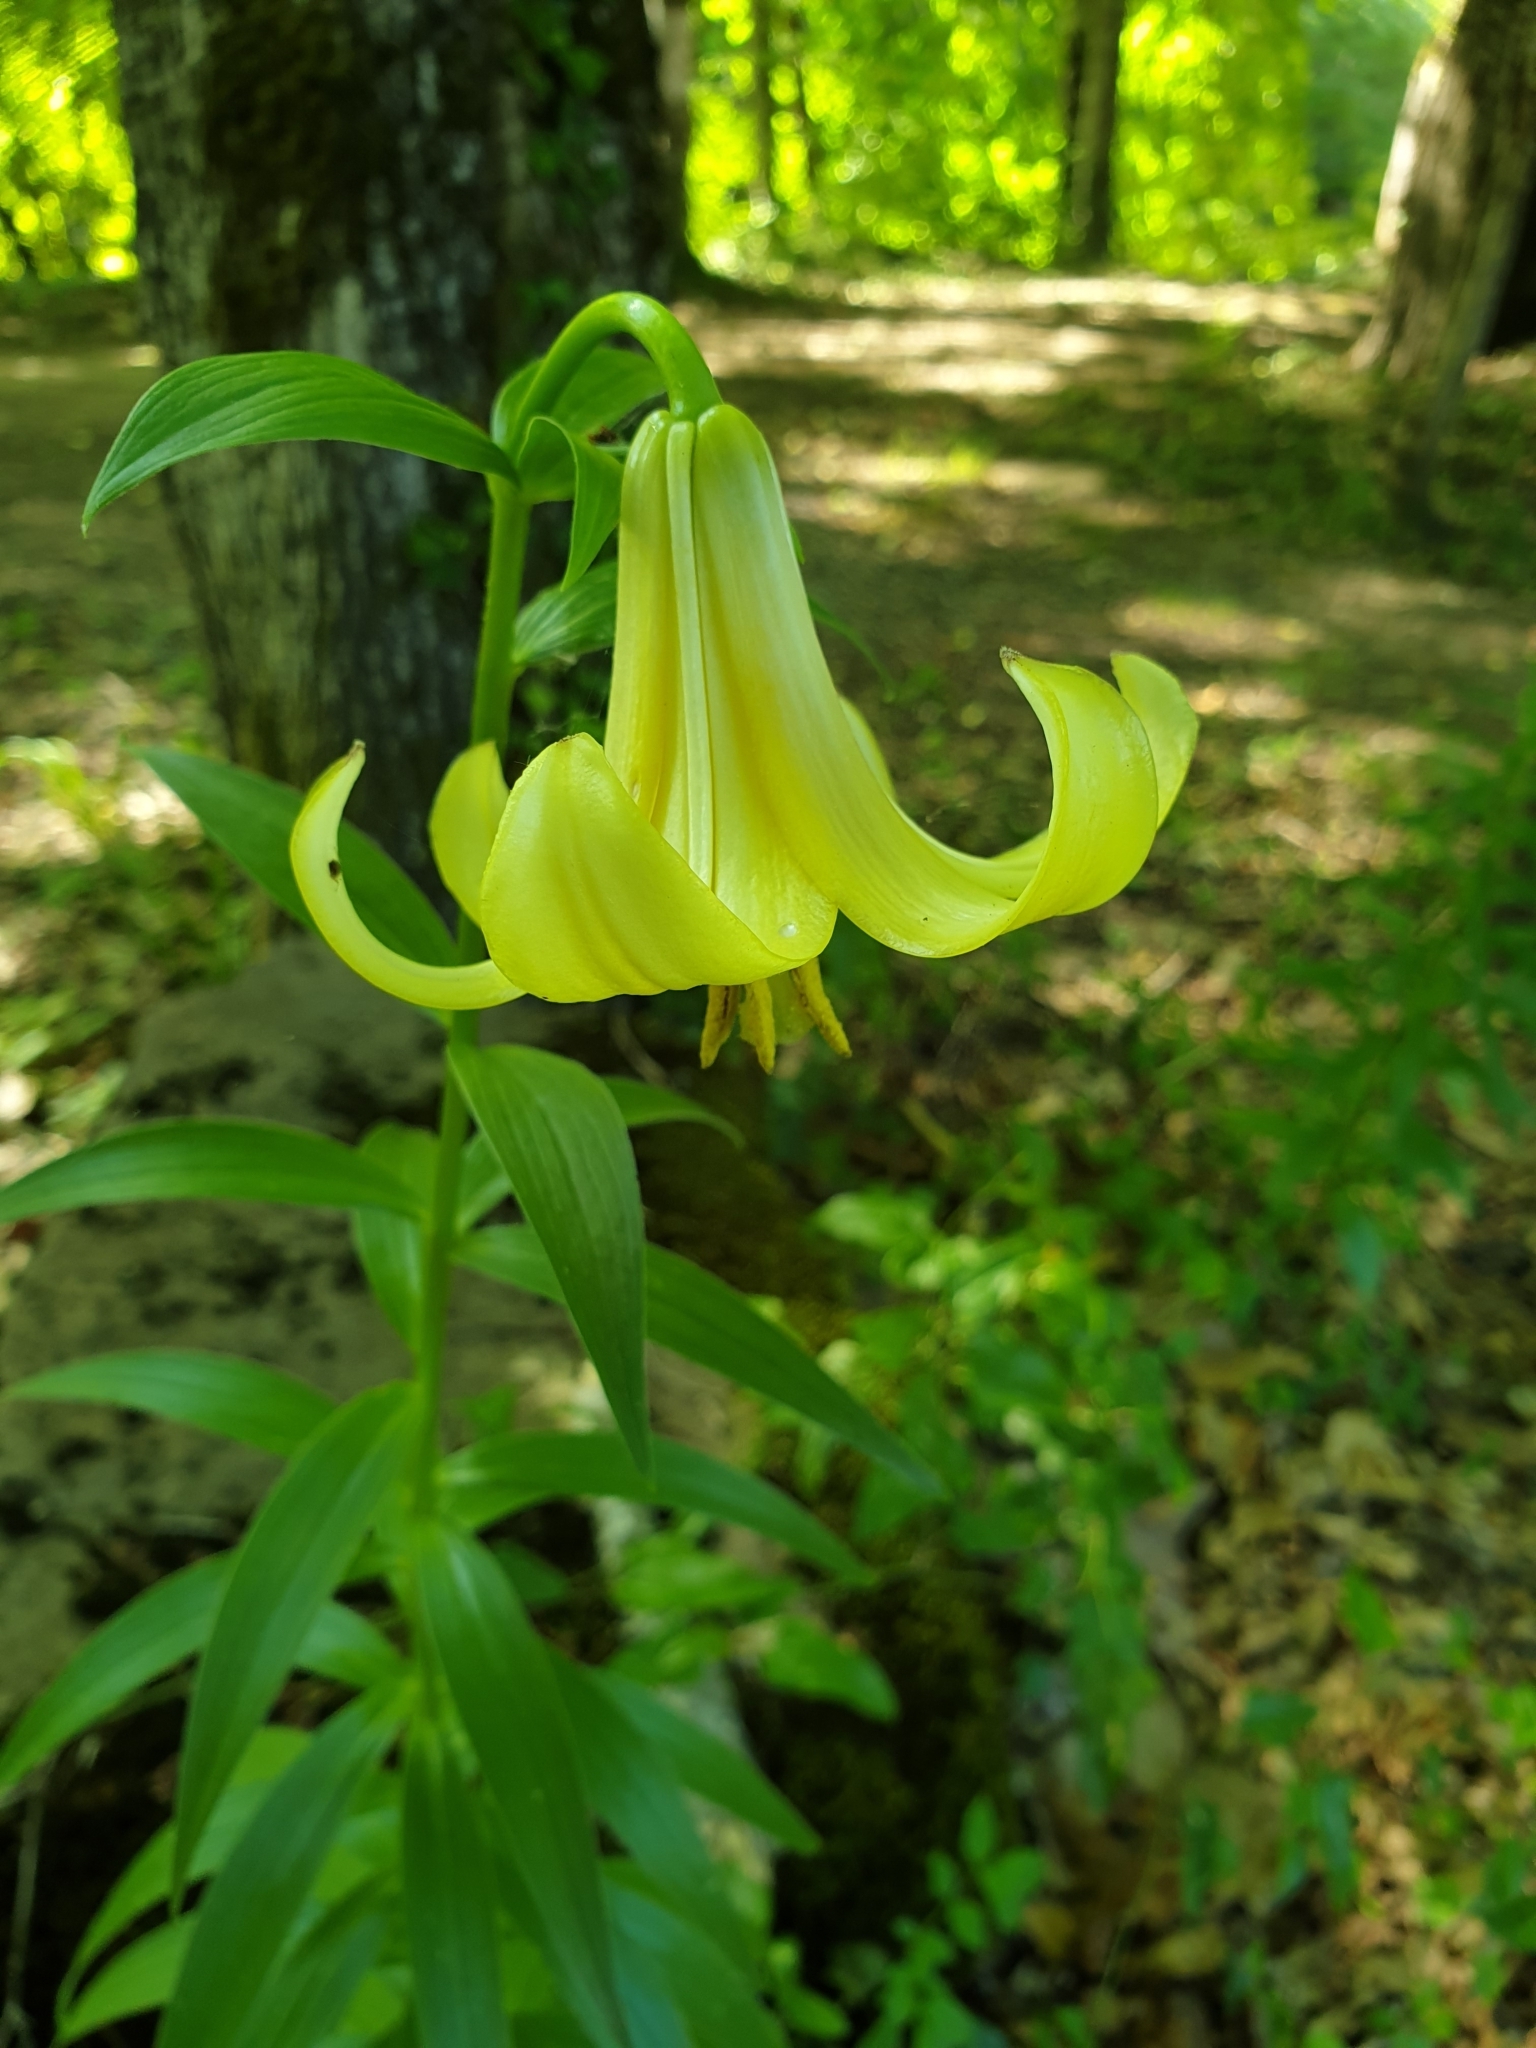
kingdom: Plantae
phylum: Tracheophyta
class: Liliopsida
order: Liliales
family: Liliaceae
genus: Lilium
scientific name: Lilium monadelphum
